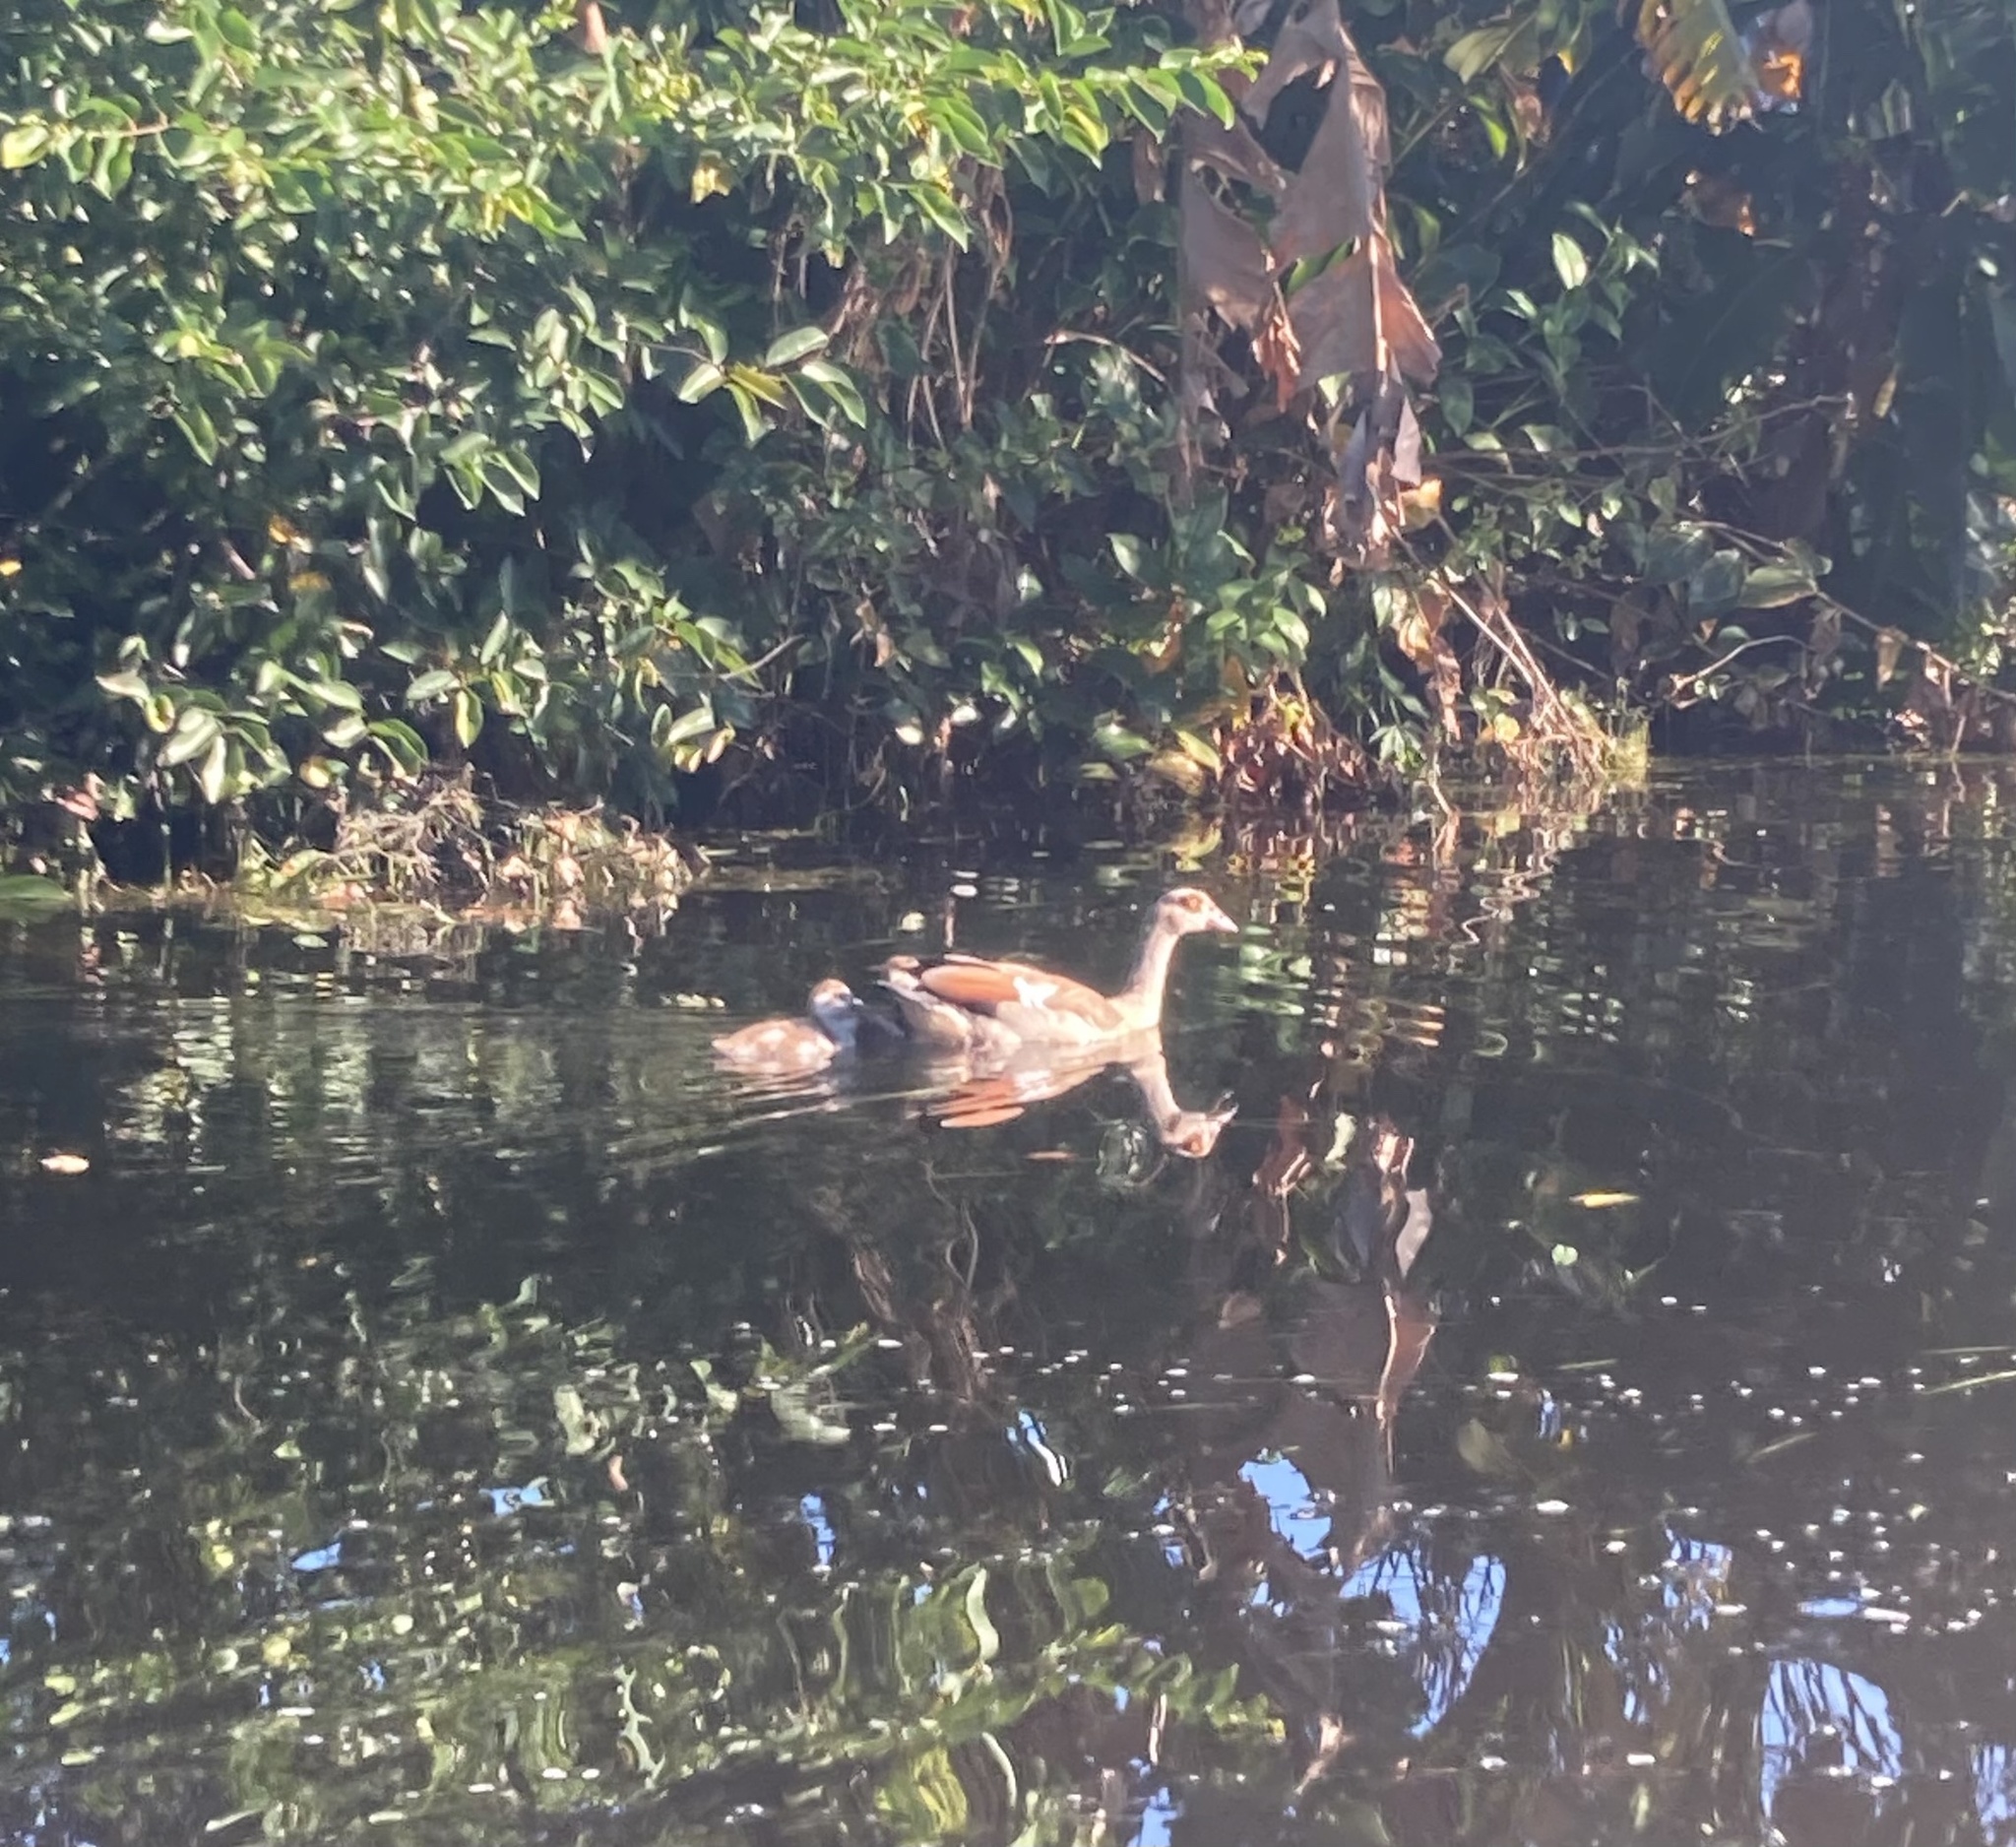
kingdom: Animalia
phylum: Chordata
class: Aves
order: Anseriformes
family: Anatidae
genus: Alopochen
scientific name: Alopochen aegyptiaca
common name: Egyptian goose
